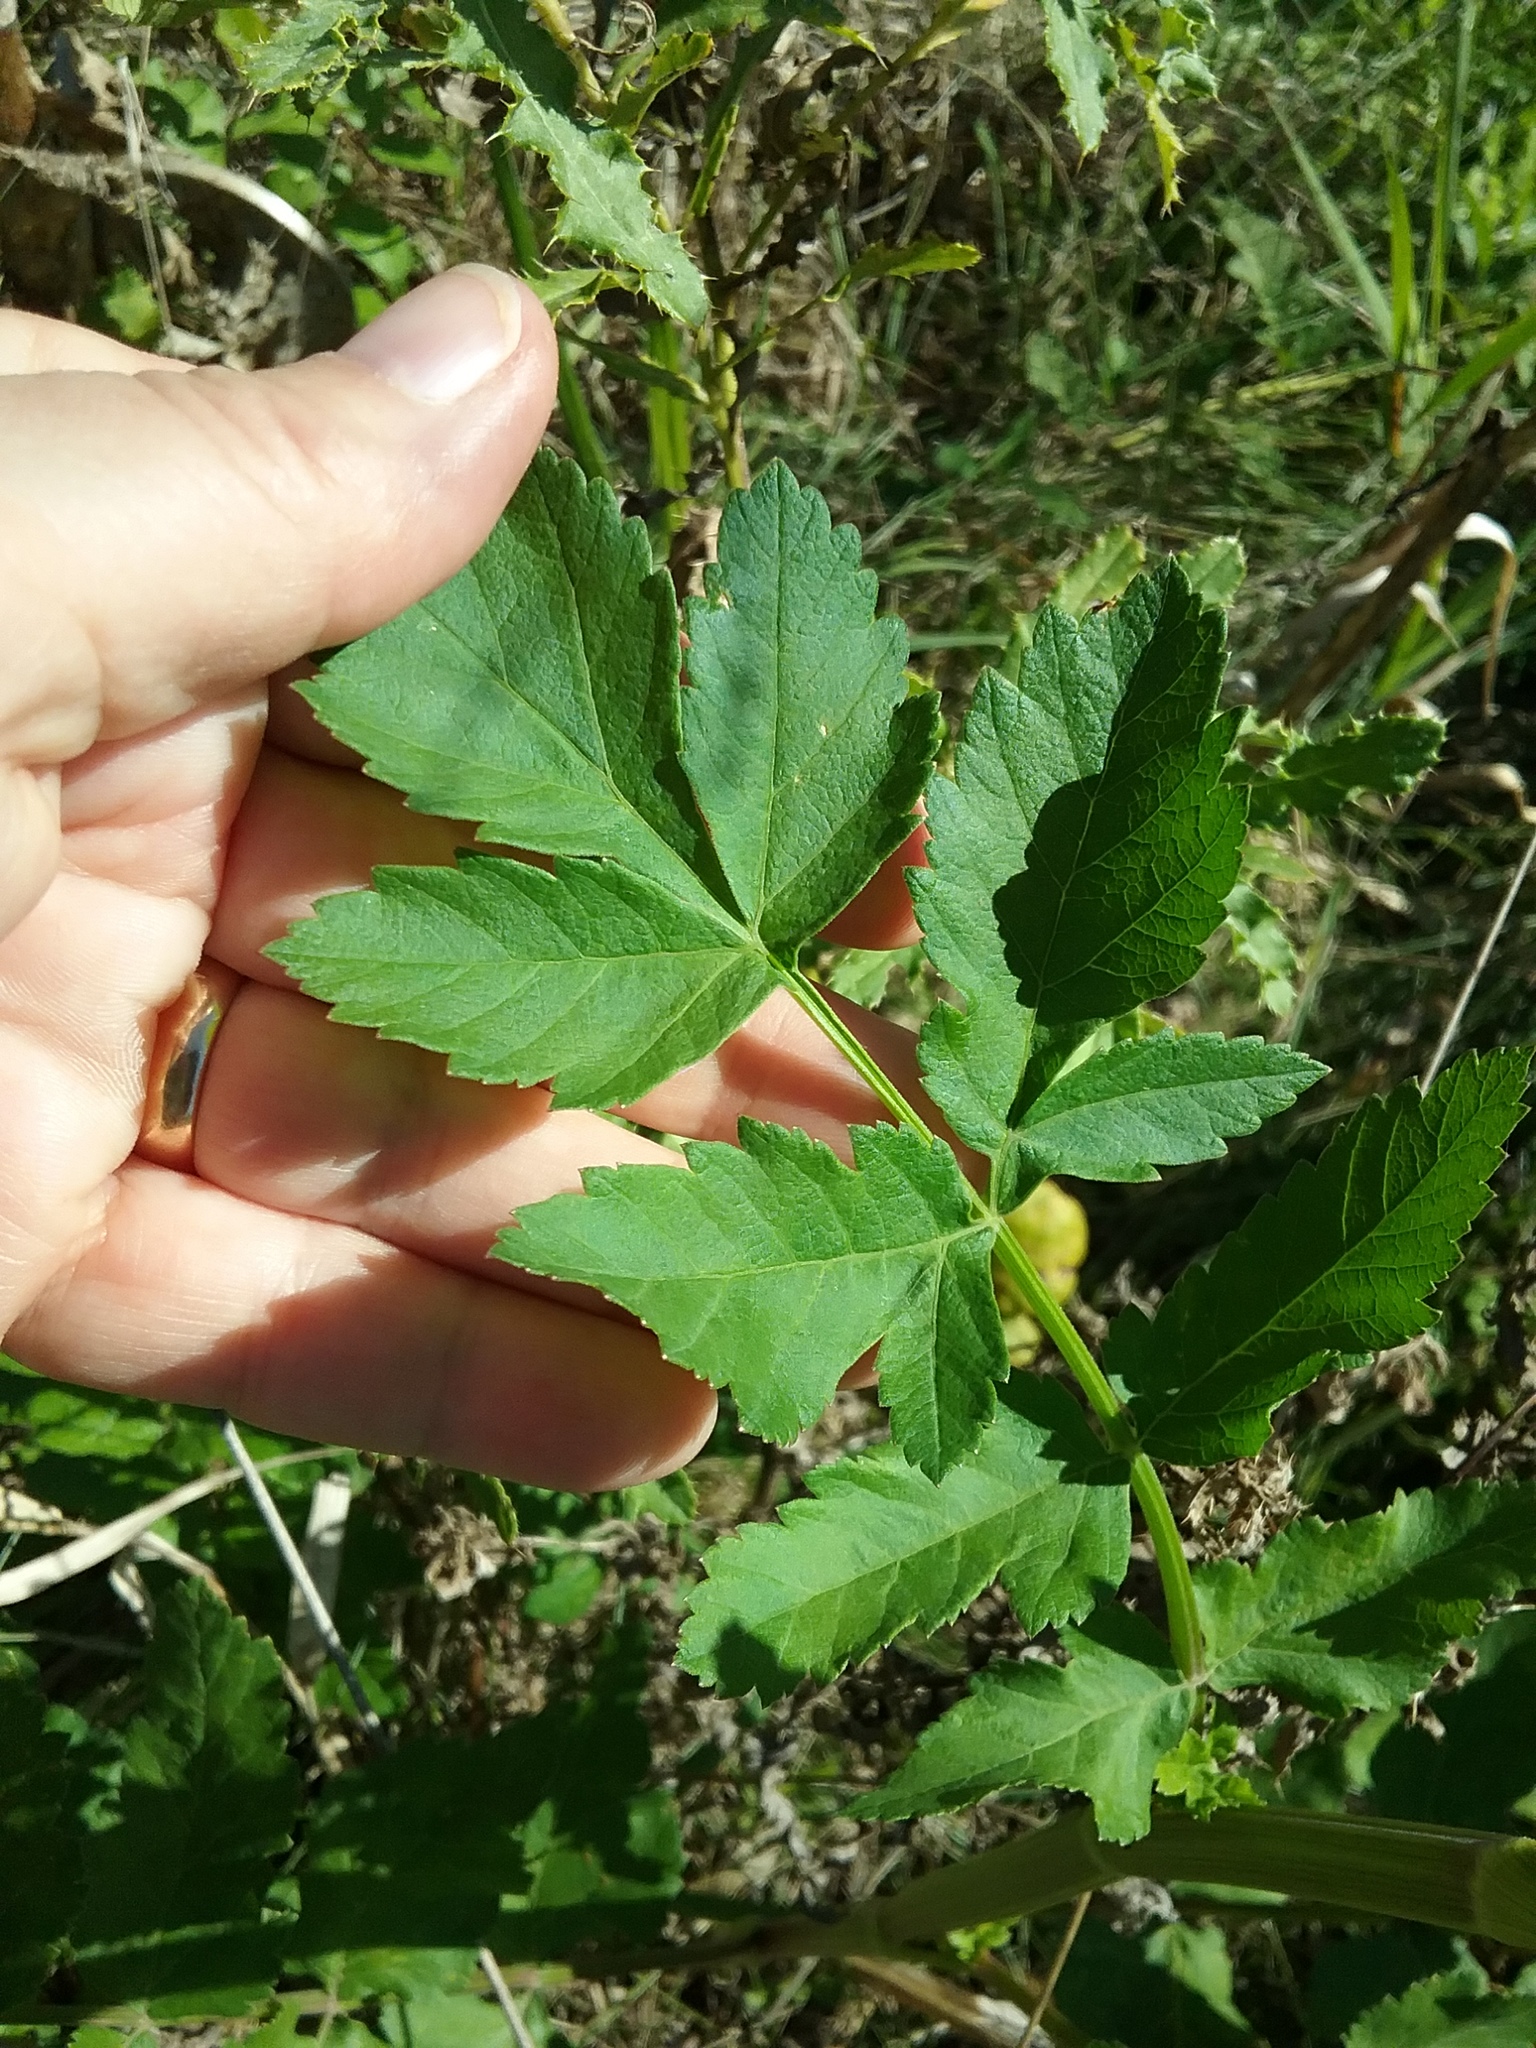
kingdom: Plantae
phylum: Tracheophyta
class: Magnoliopsida
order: Apiales
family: Apiaceae
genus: Pastinaca
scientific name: Pastinaca sativa
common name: Wild parsnip
